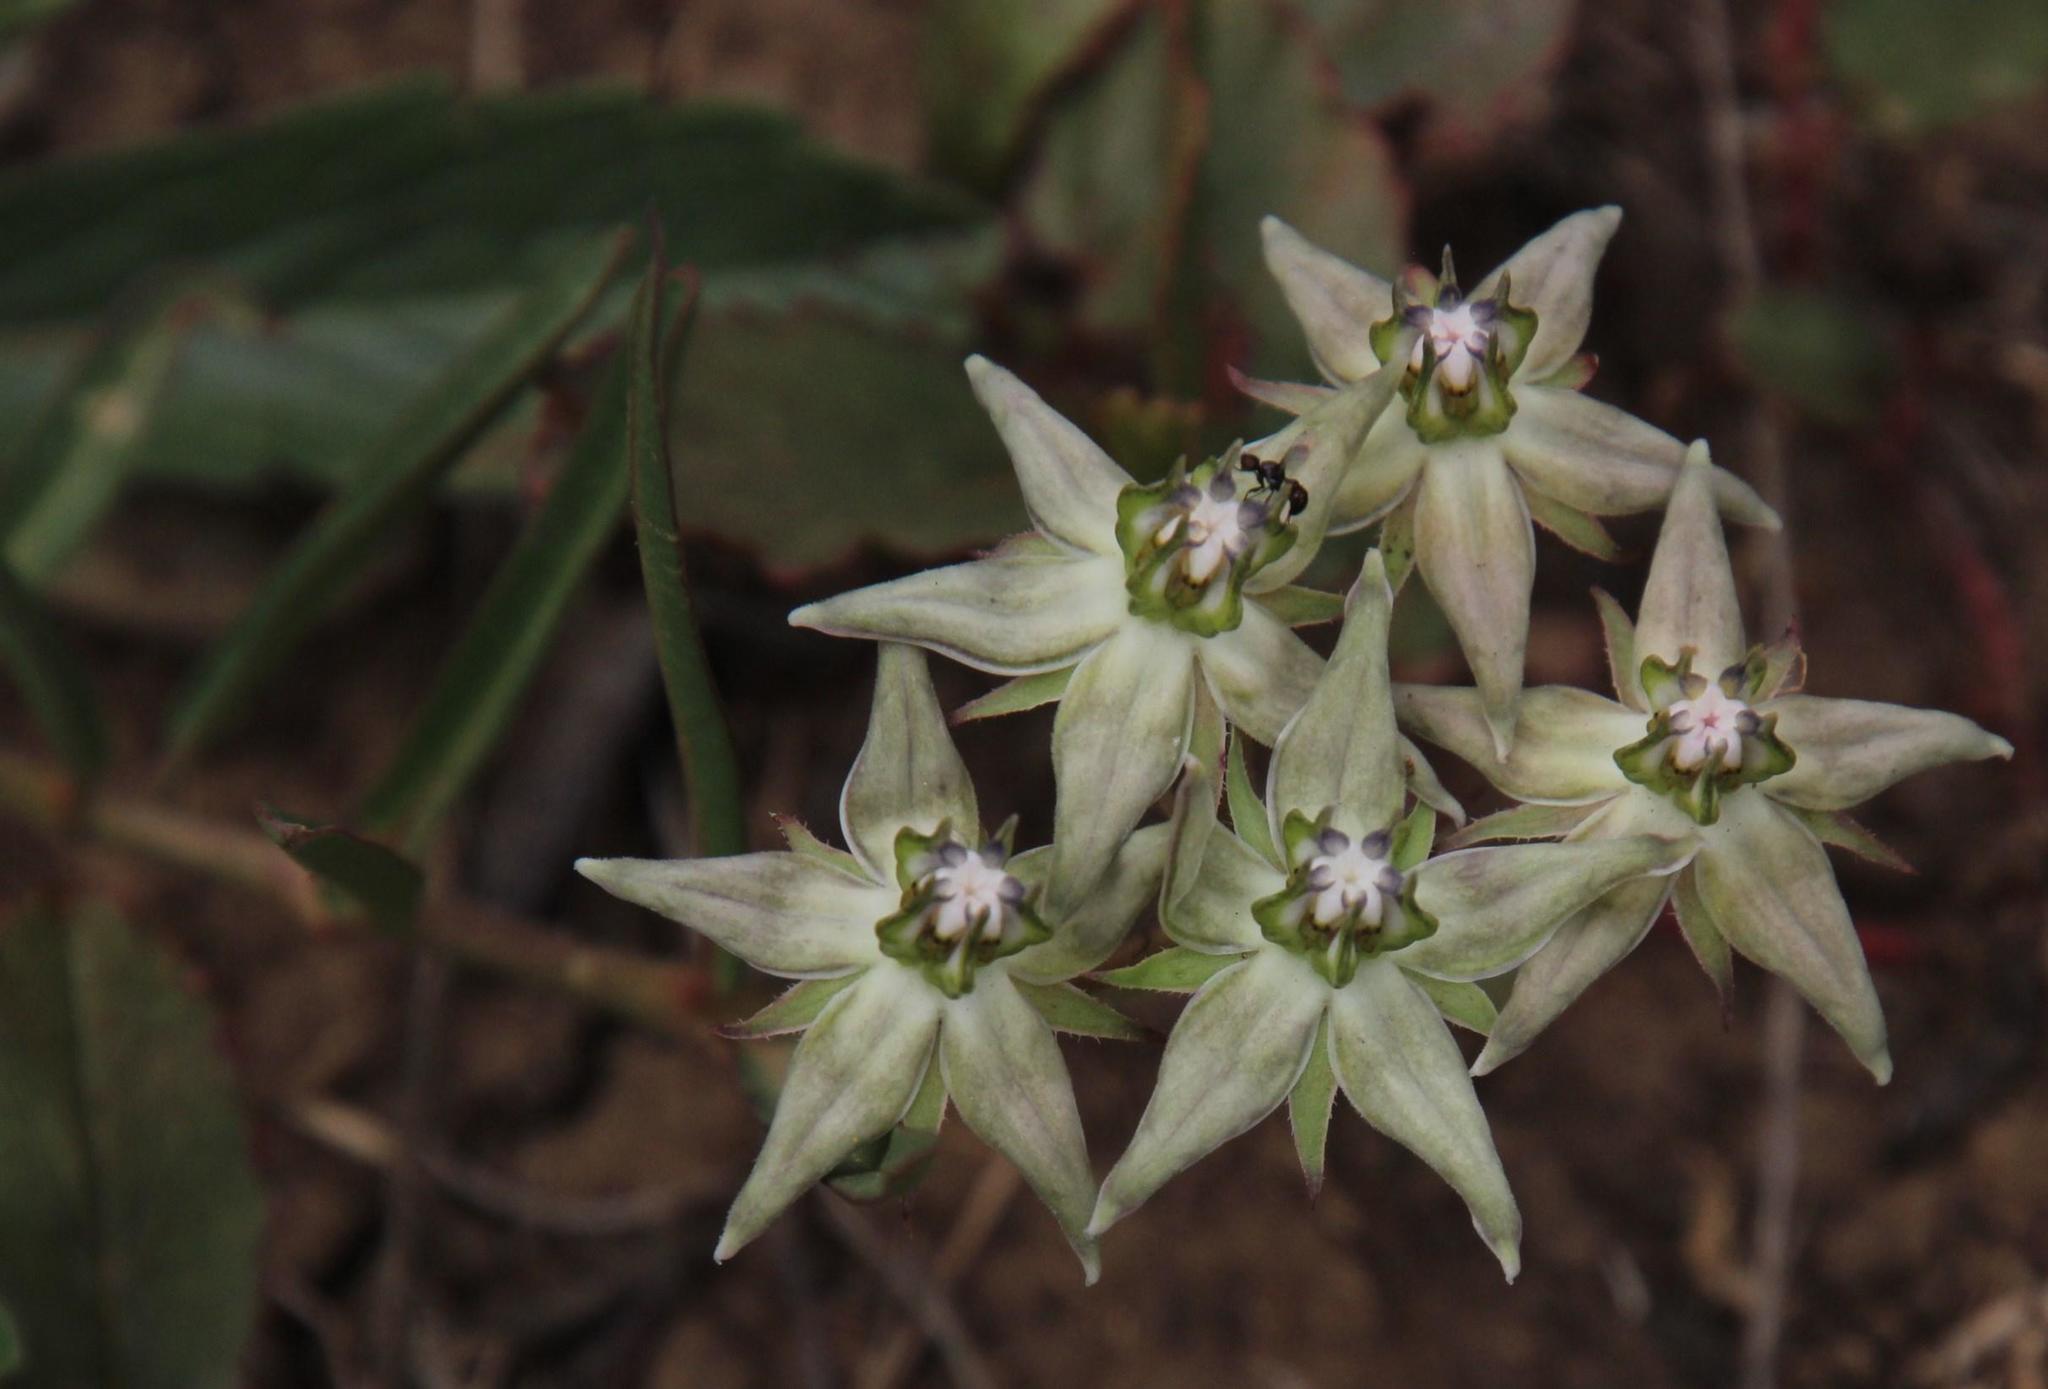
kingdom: Plantae
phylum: Tracheophyta
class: Magnoliopsida
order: Gentianales
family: Apocynaceae
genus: Asclepias
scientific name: Asclepias gibba
